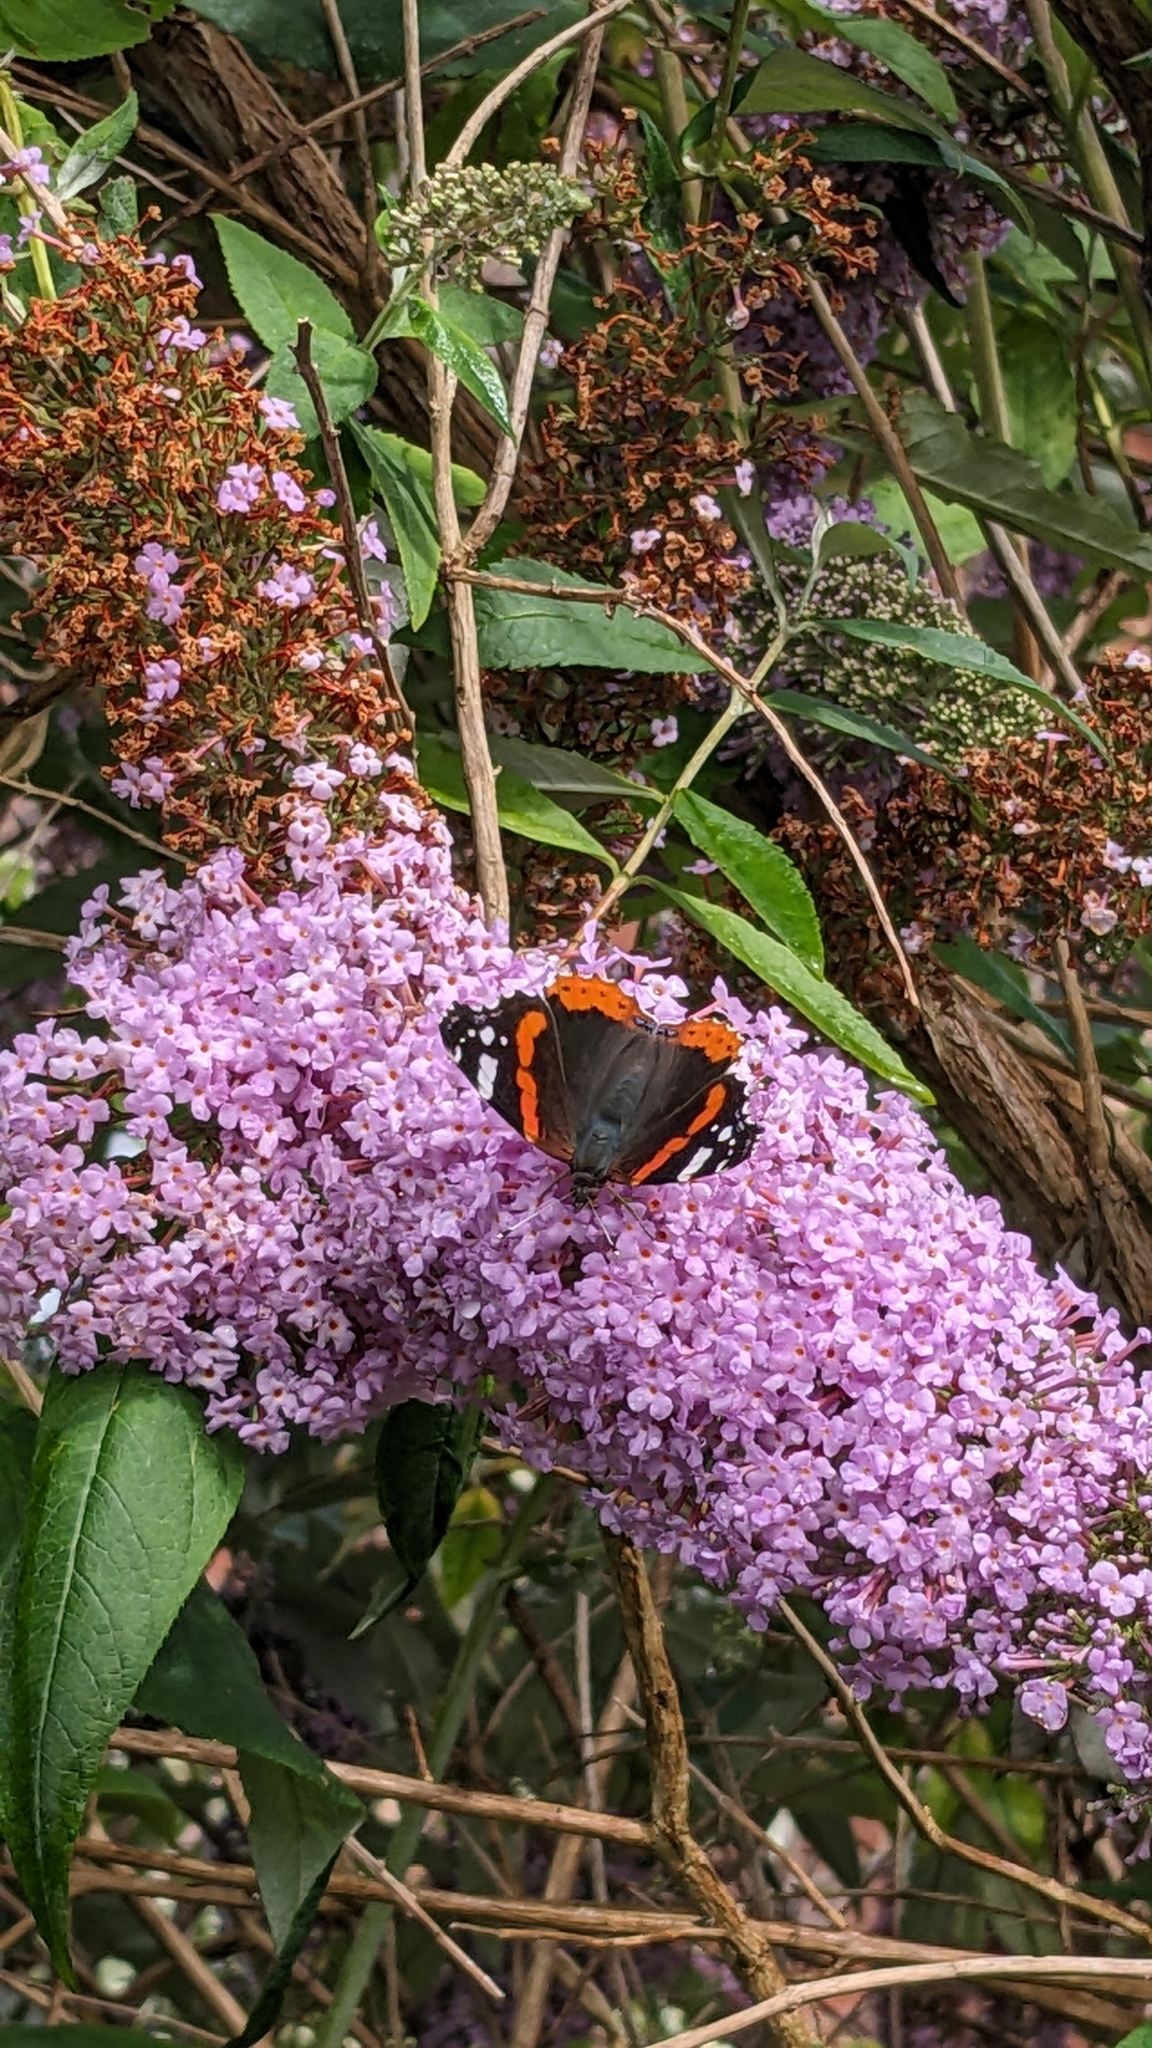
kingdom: Animalia
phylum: Arthropoda
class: Insecta
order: Lepidoptera
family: Nymphalidae
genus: Vanessa
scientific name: Vanessa atalanta
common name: Red admiral
